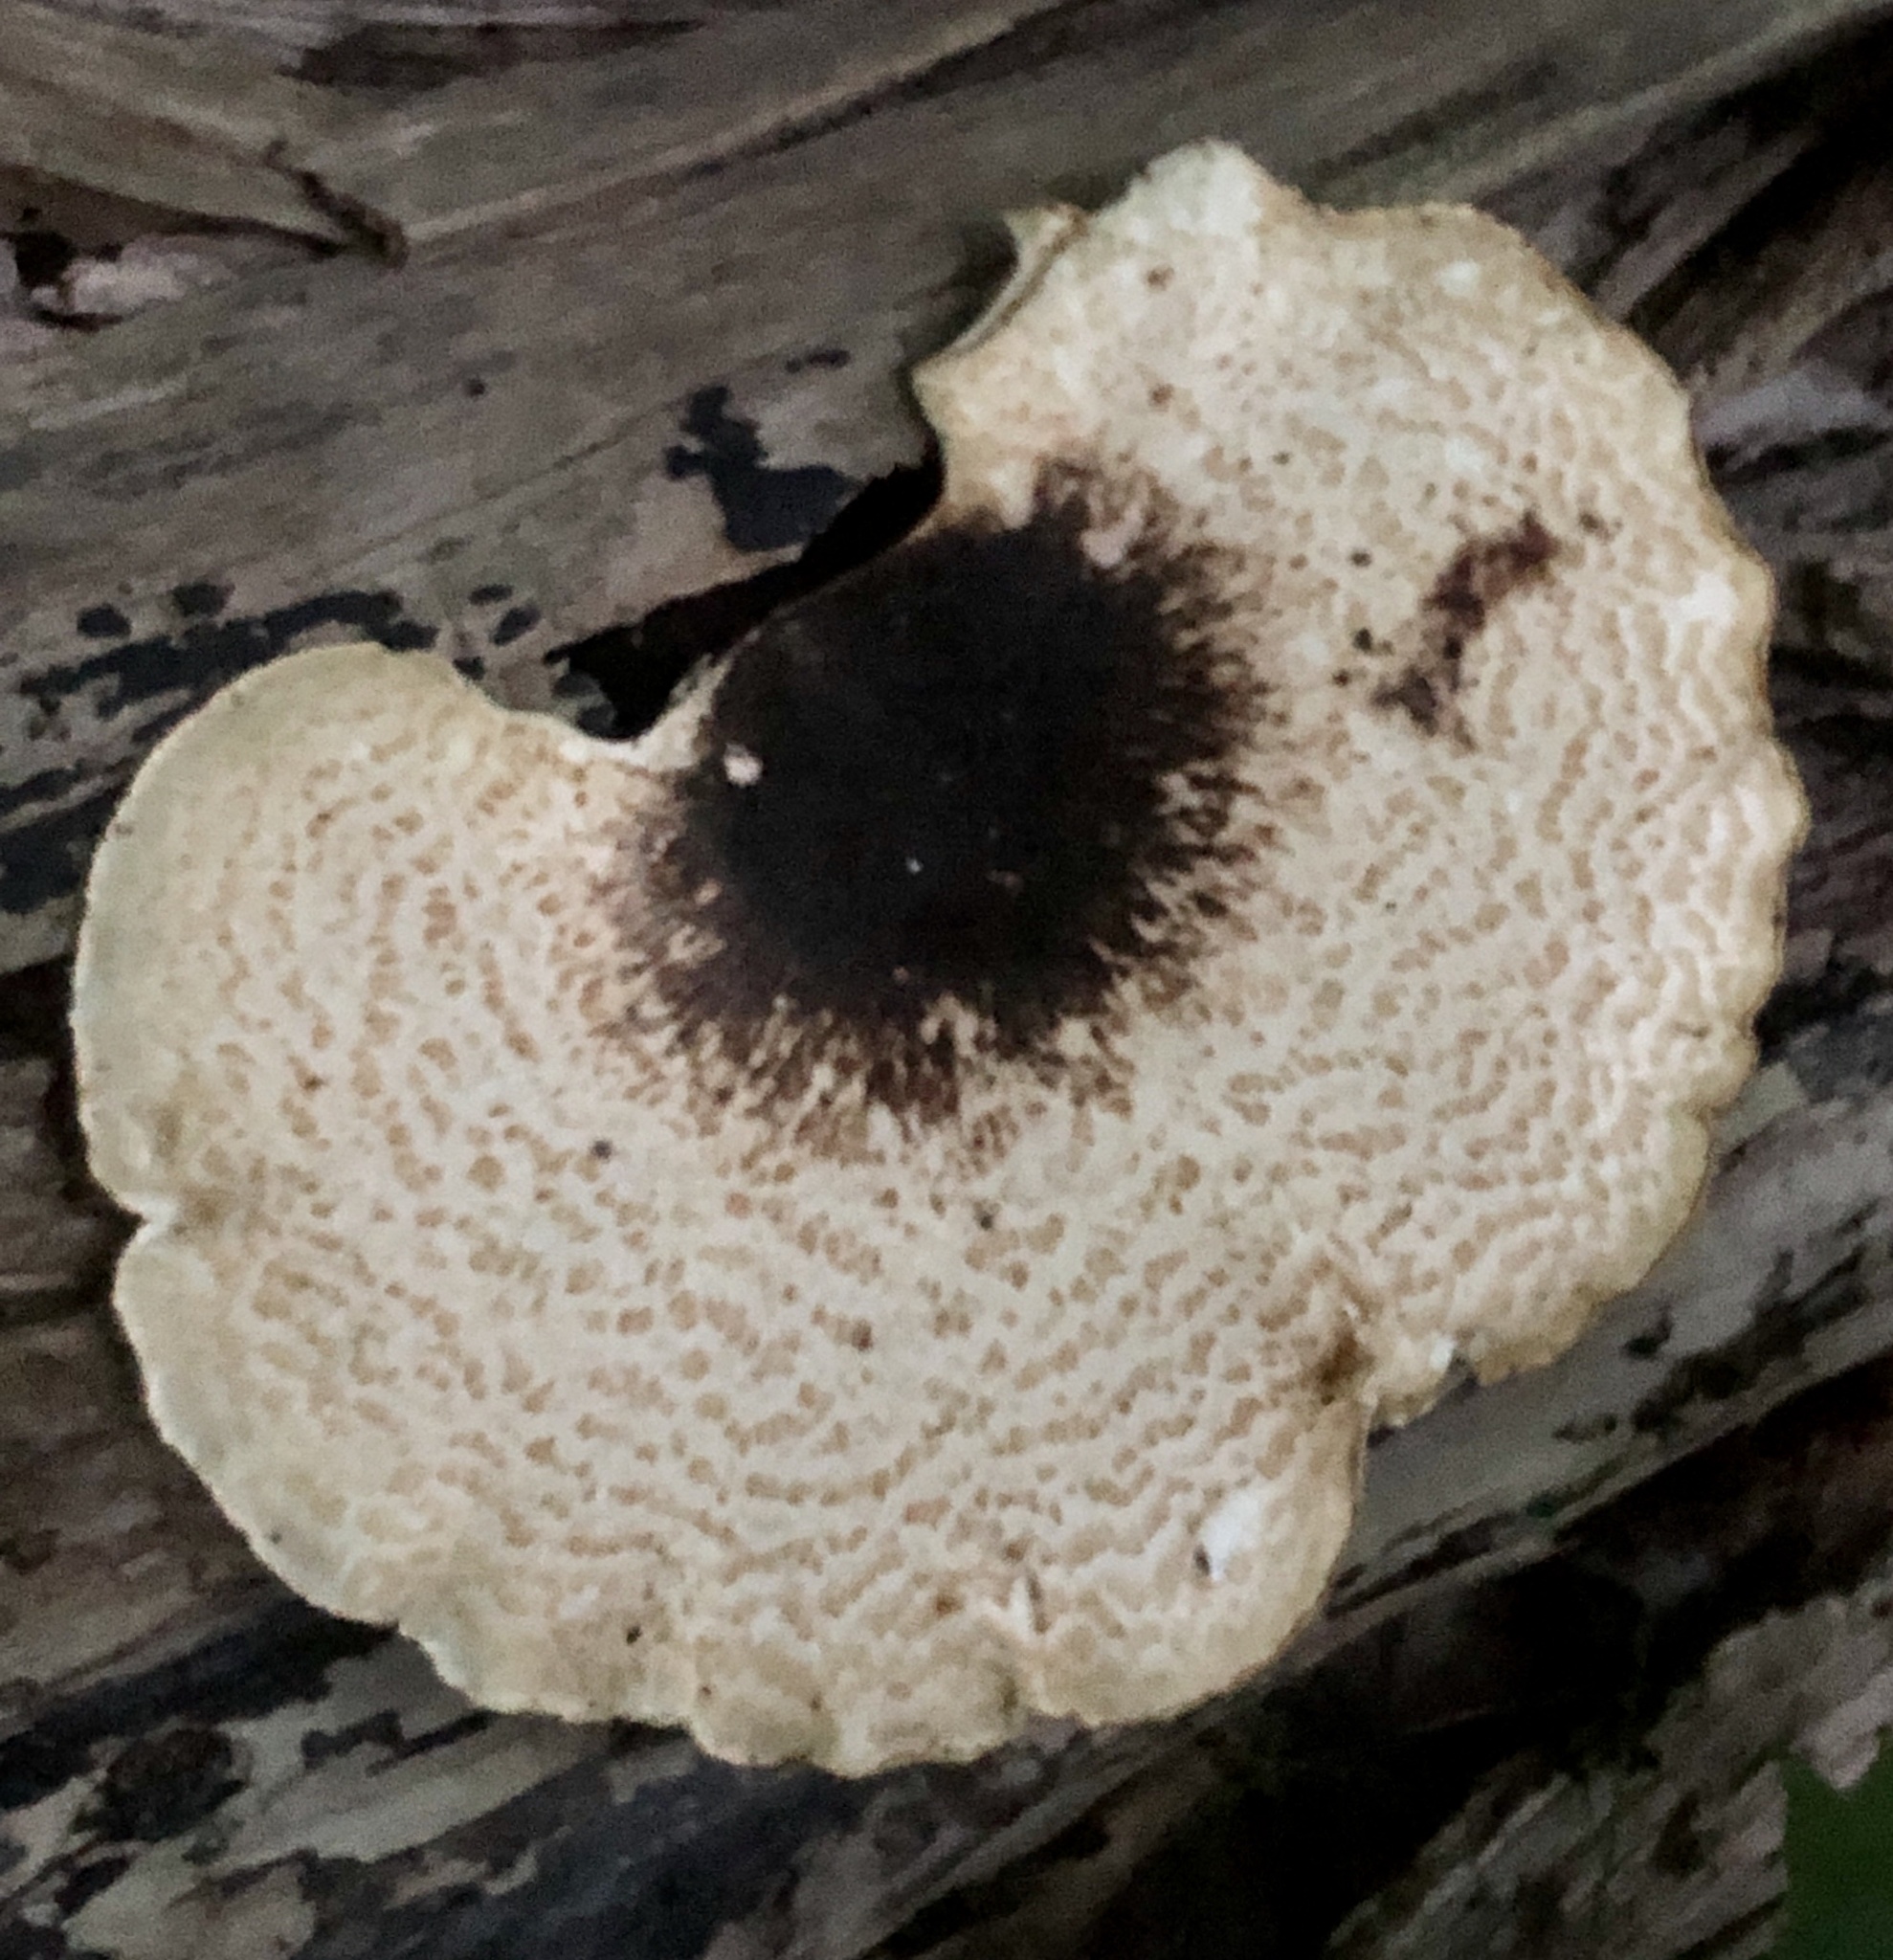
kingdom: Fungi
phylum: Basidiomycota
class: Agaricomycetes
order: Polyporales
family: Polyporaceae
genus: Cerioporus
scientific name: Cerioporus squamosus
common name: Dryad's saddle
